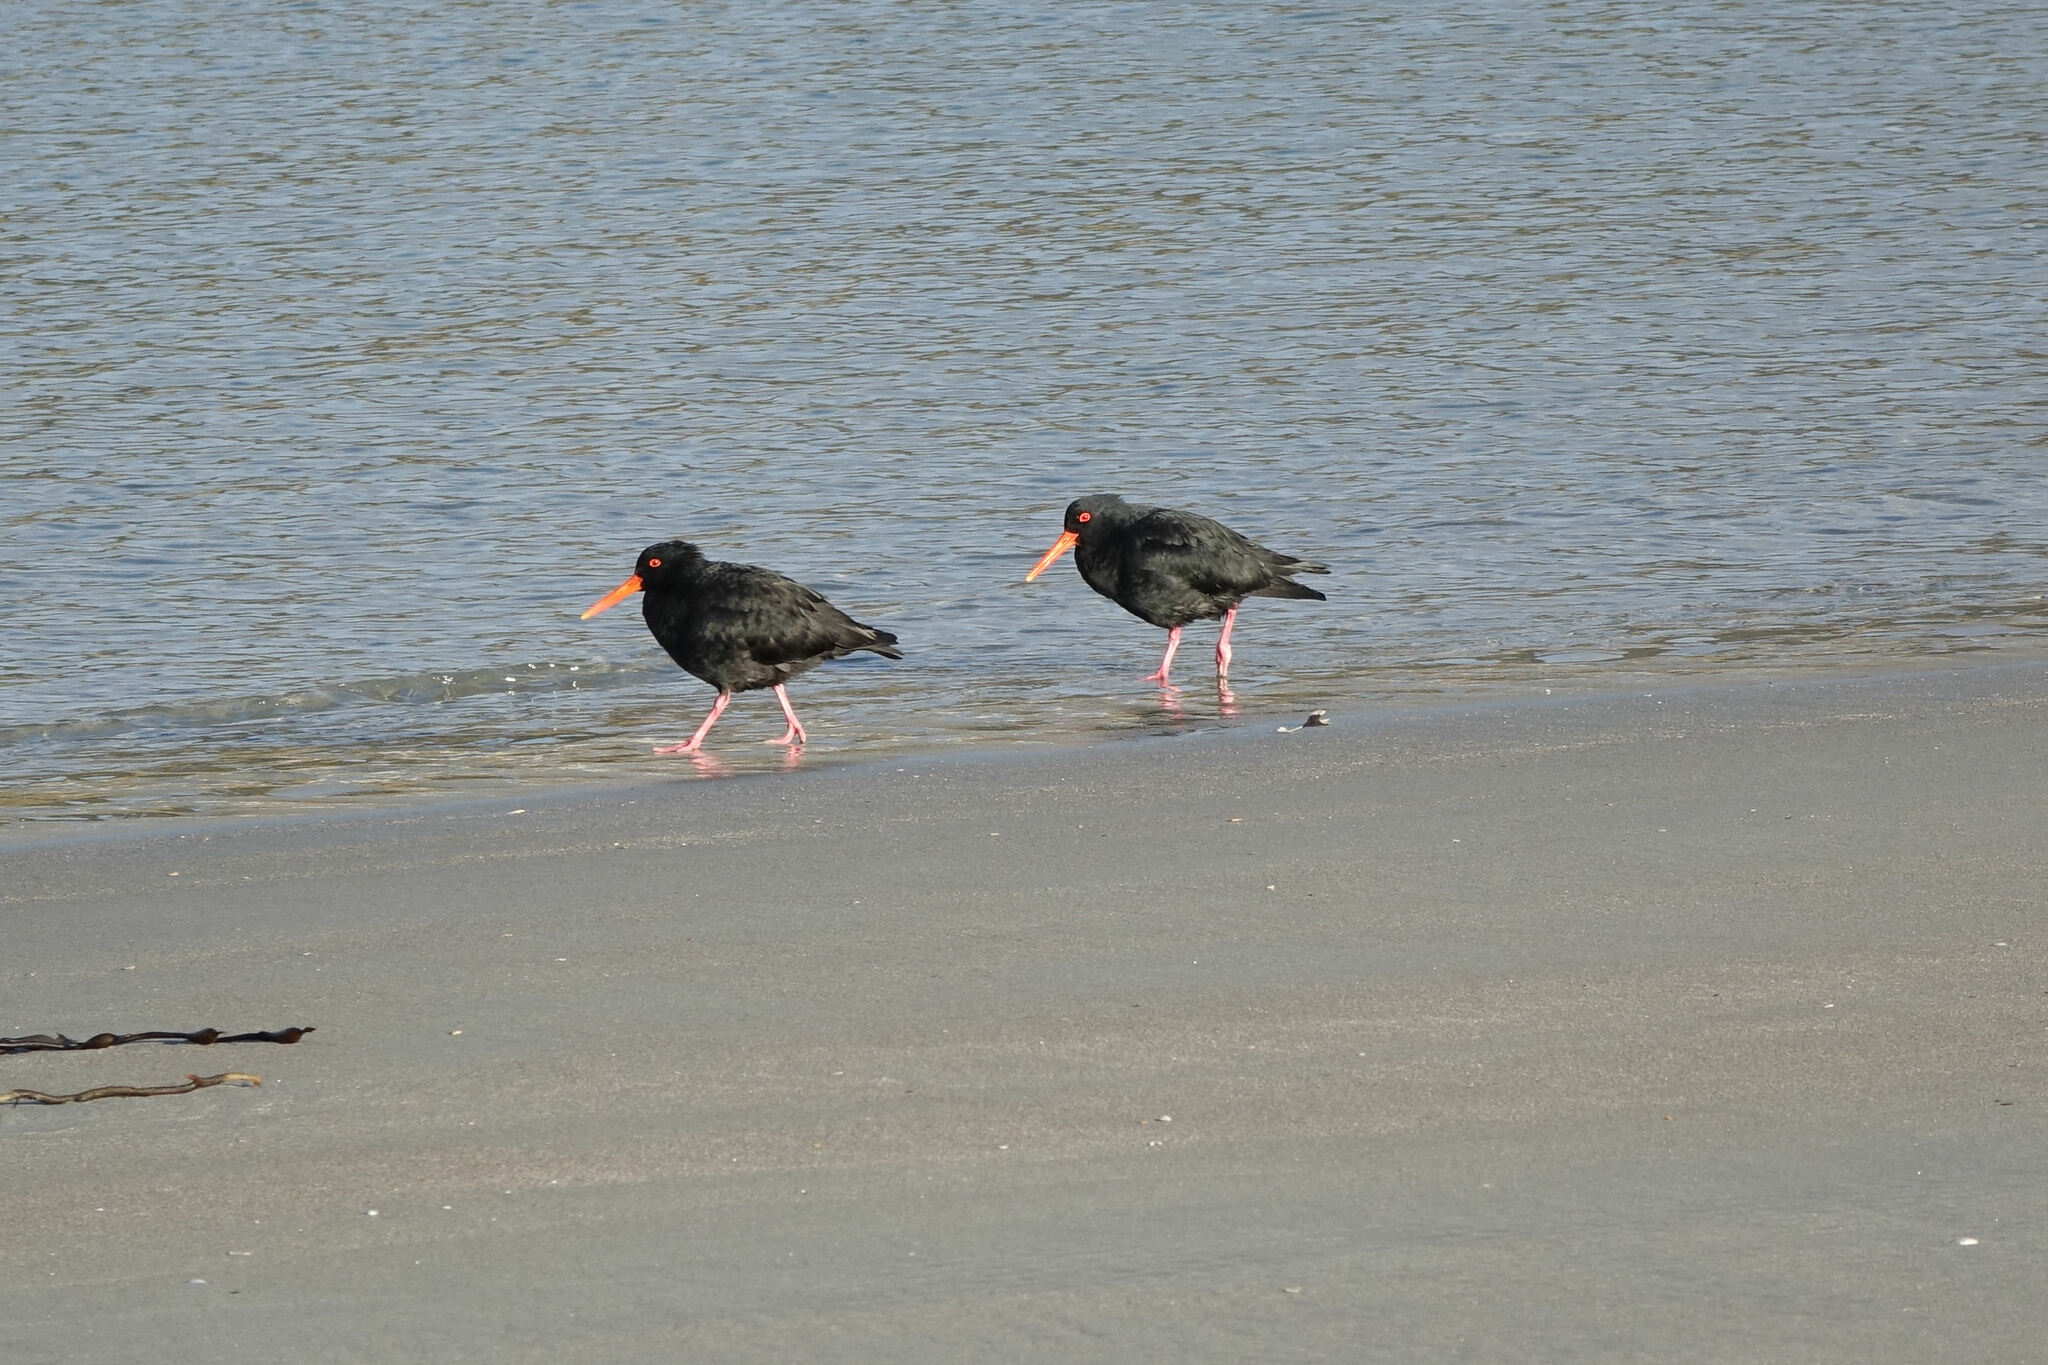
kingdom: Animalia
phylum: Chordata
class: Aves
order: Charadriiformes
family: Haematopodidae
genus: Haematopus
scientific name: Haematopus unicolor
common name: Variable oystercatcher
